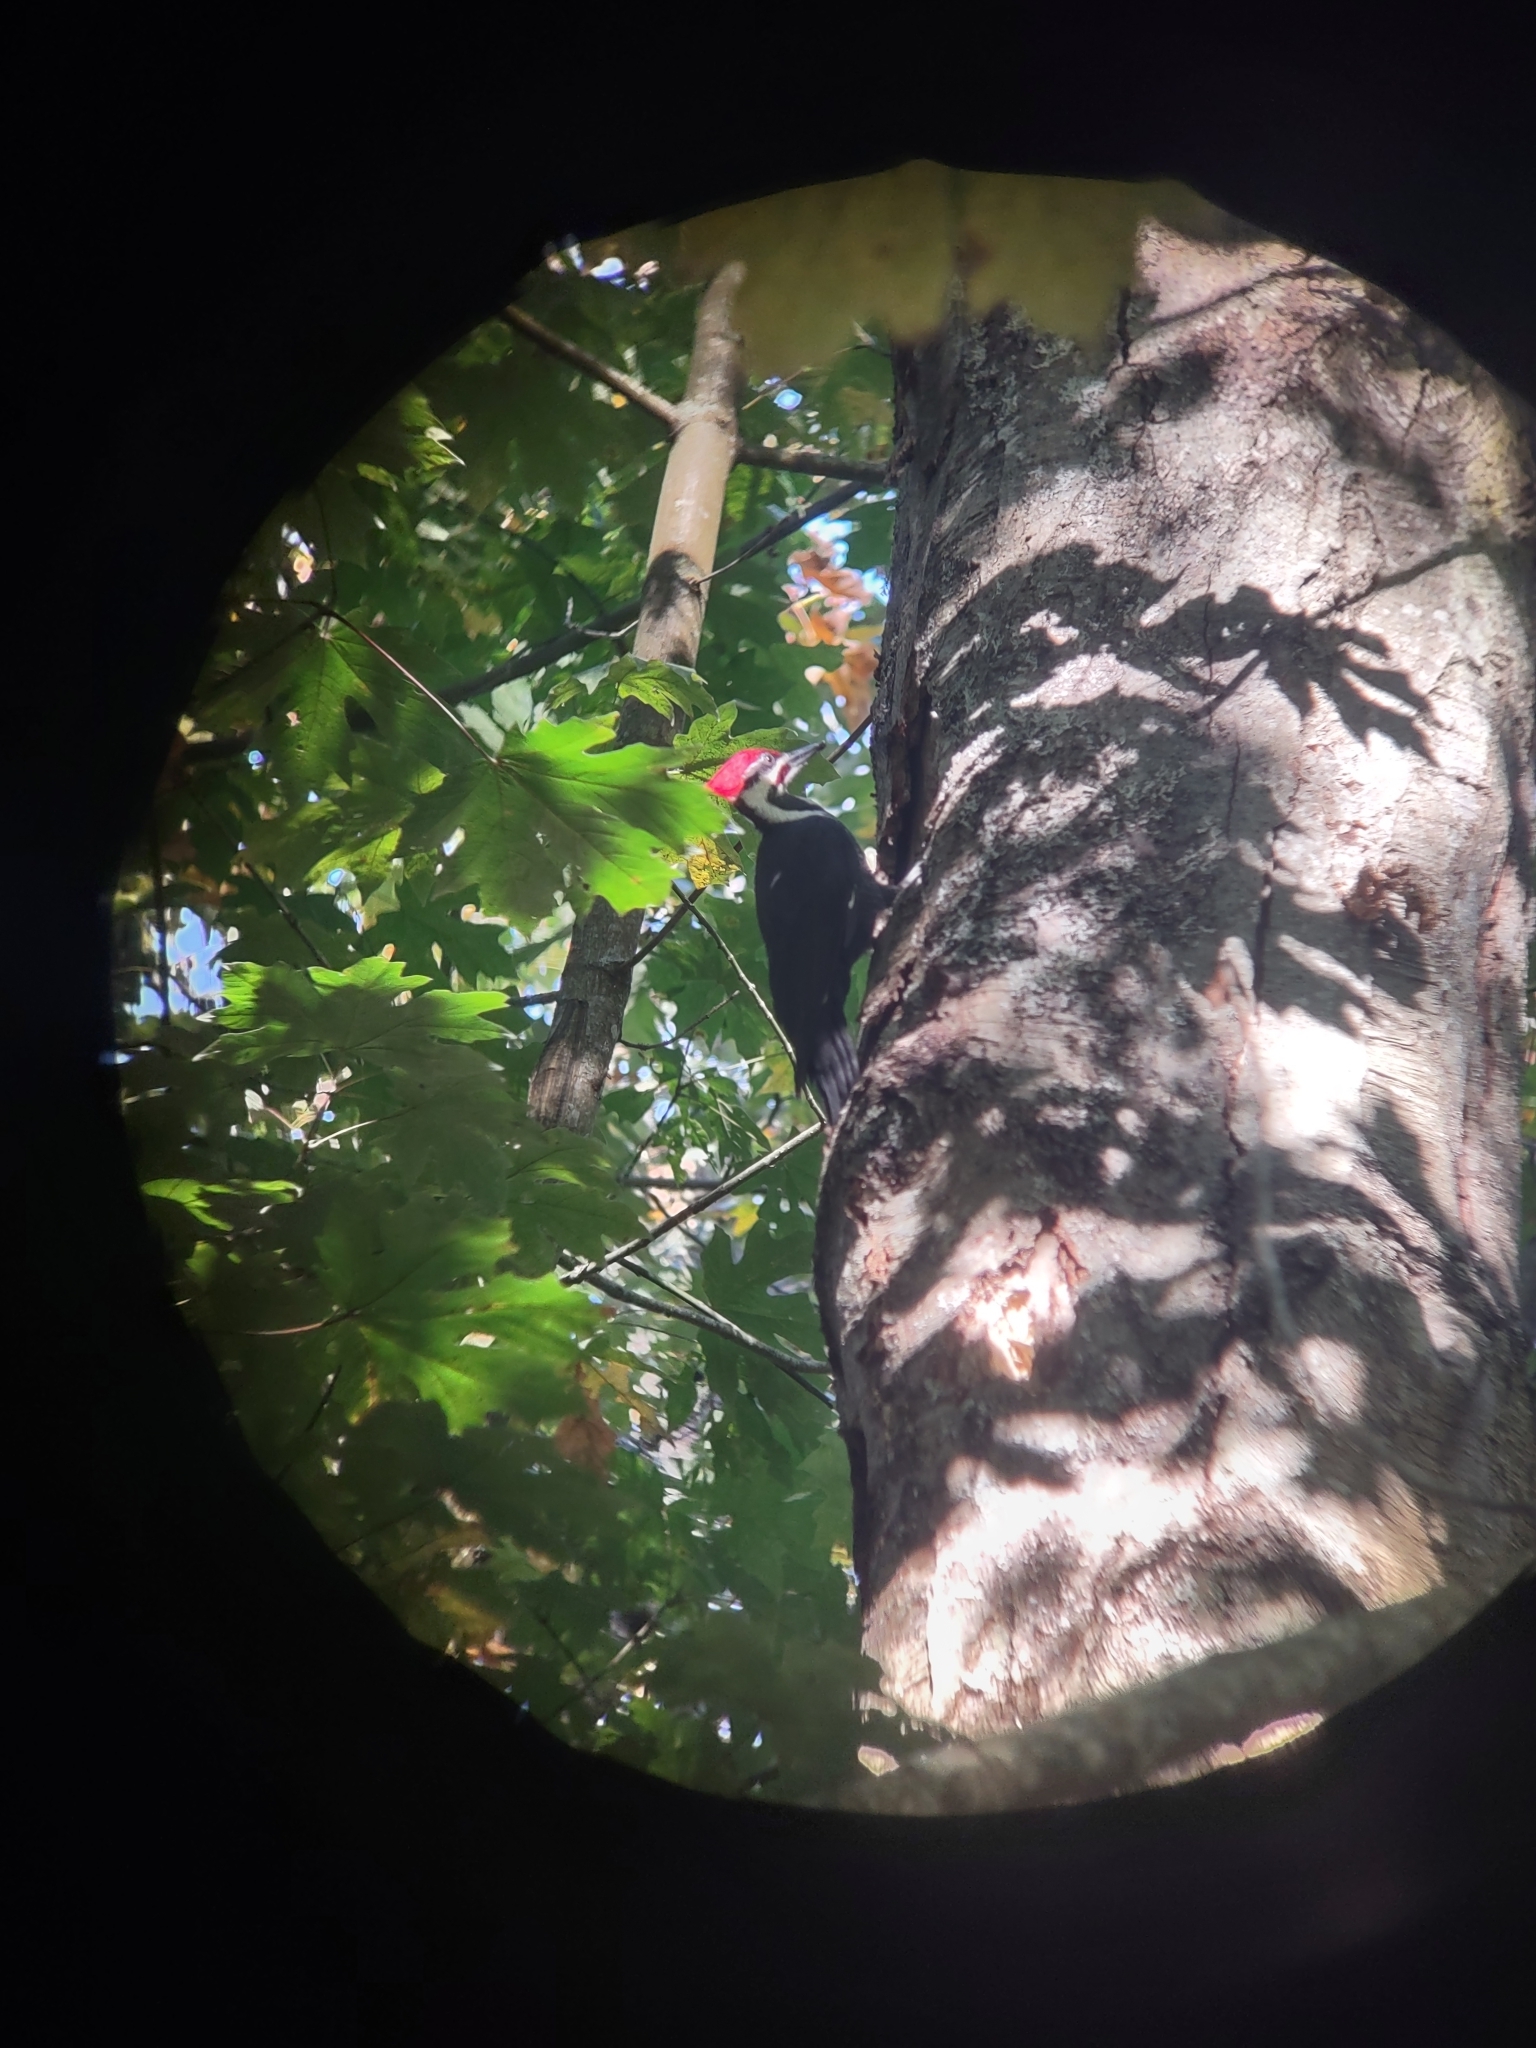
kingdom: Animalia
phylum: Chordata
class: Aves
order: Piciformes
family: Picidae
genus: Dryocopus
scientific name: Dryocopus pileatus
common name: Pileated woodpecker
